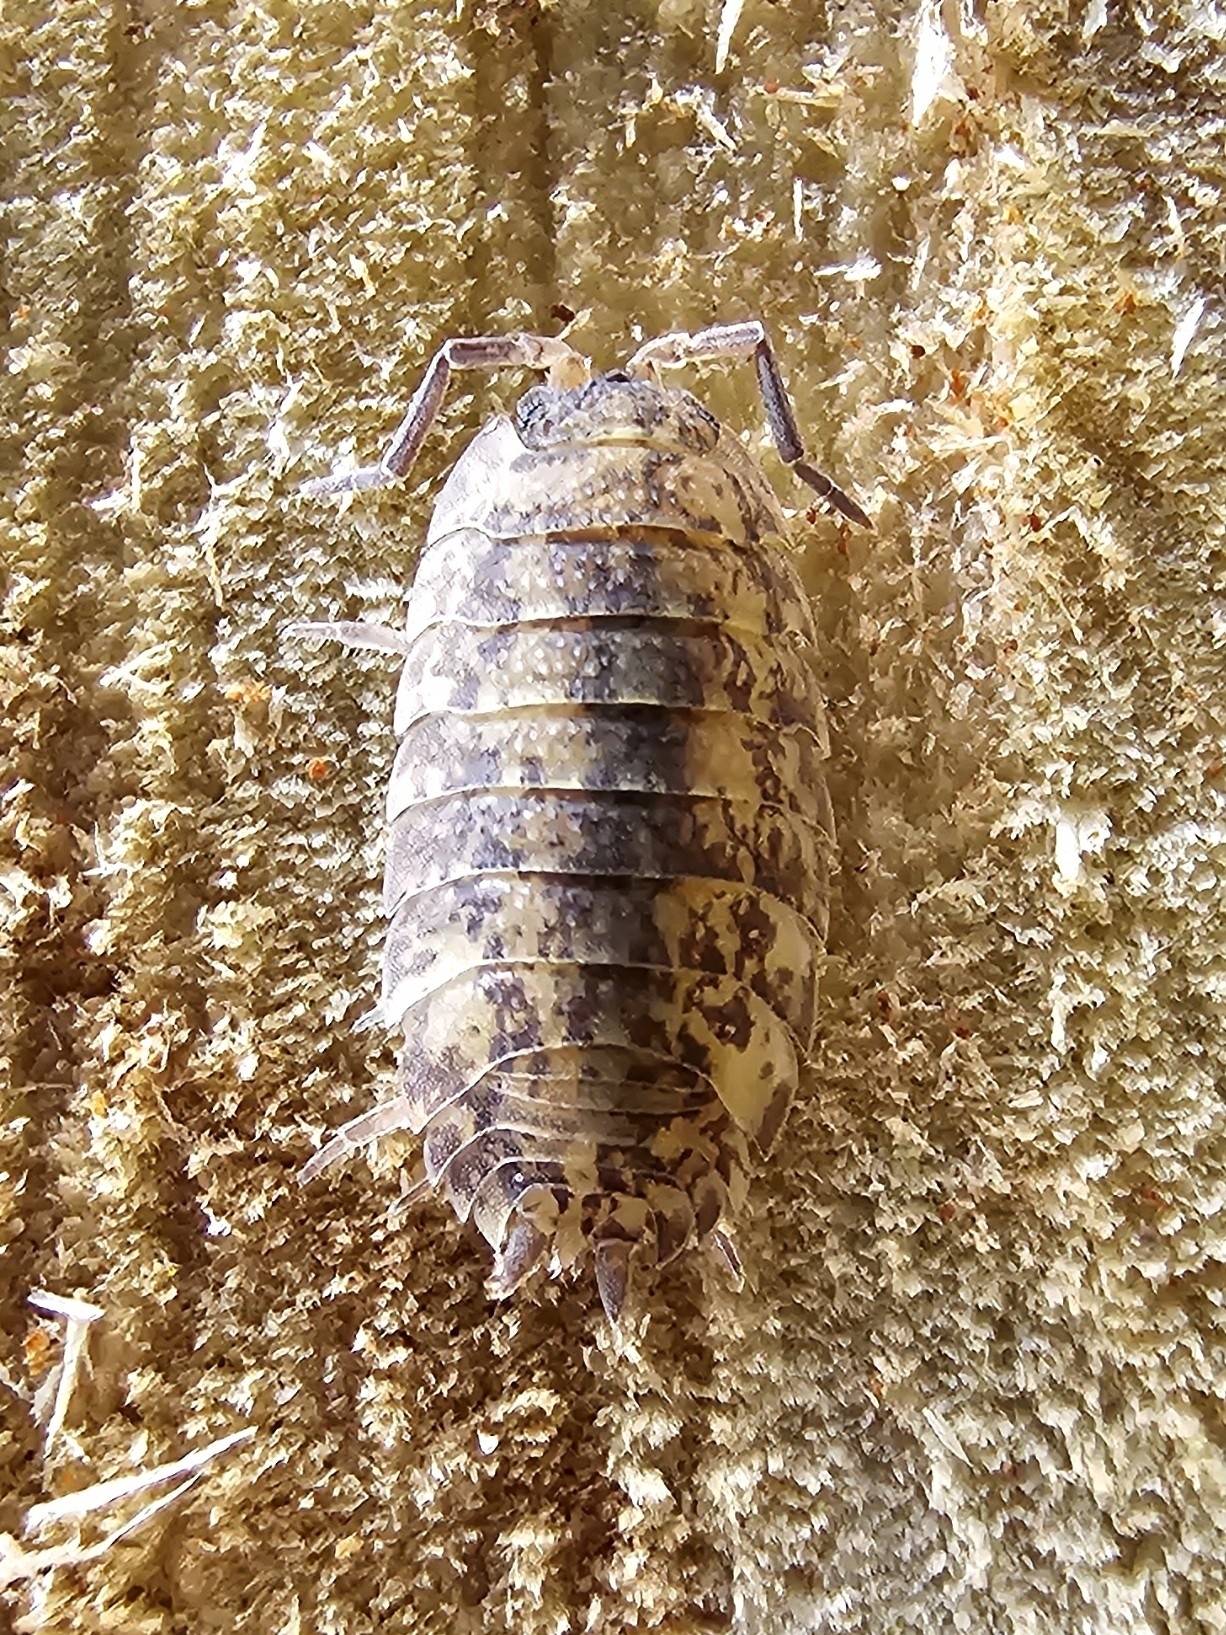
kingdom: Animalia
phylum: Arthropoda
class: Malacostraca
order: Isopoda
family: Porcellionidae
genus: Porcellio
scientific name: Porcellio scaber
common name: Common rough woodlouse
